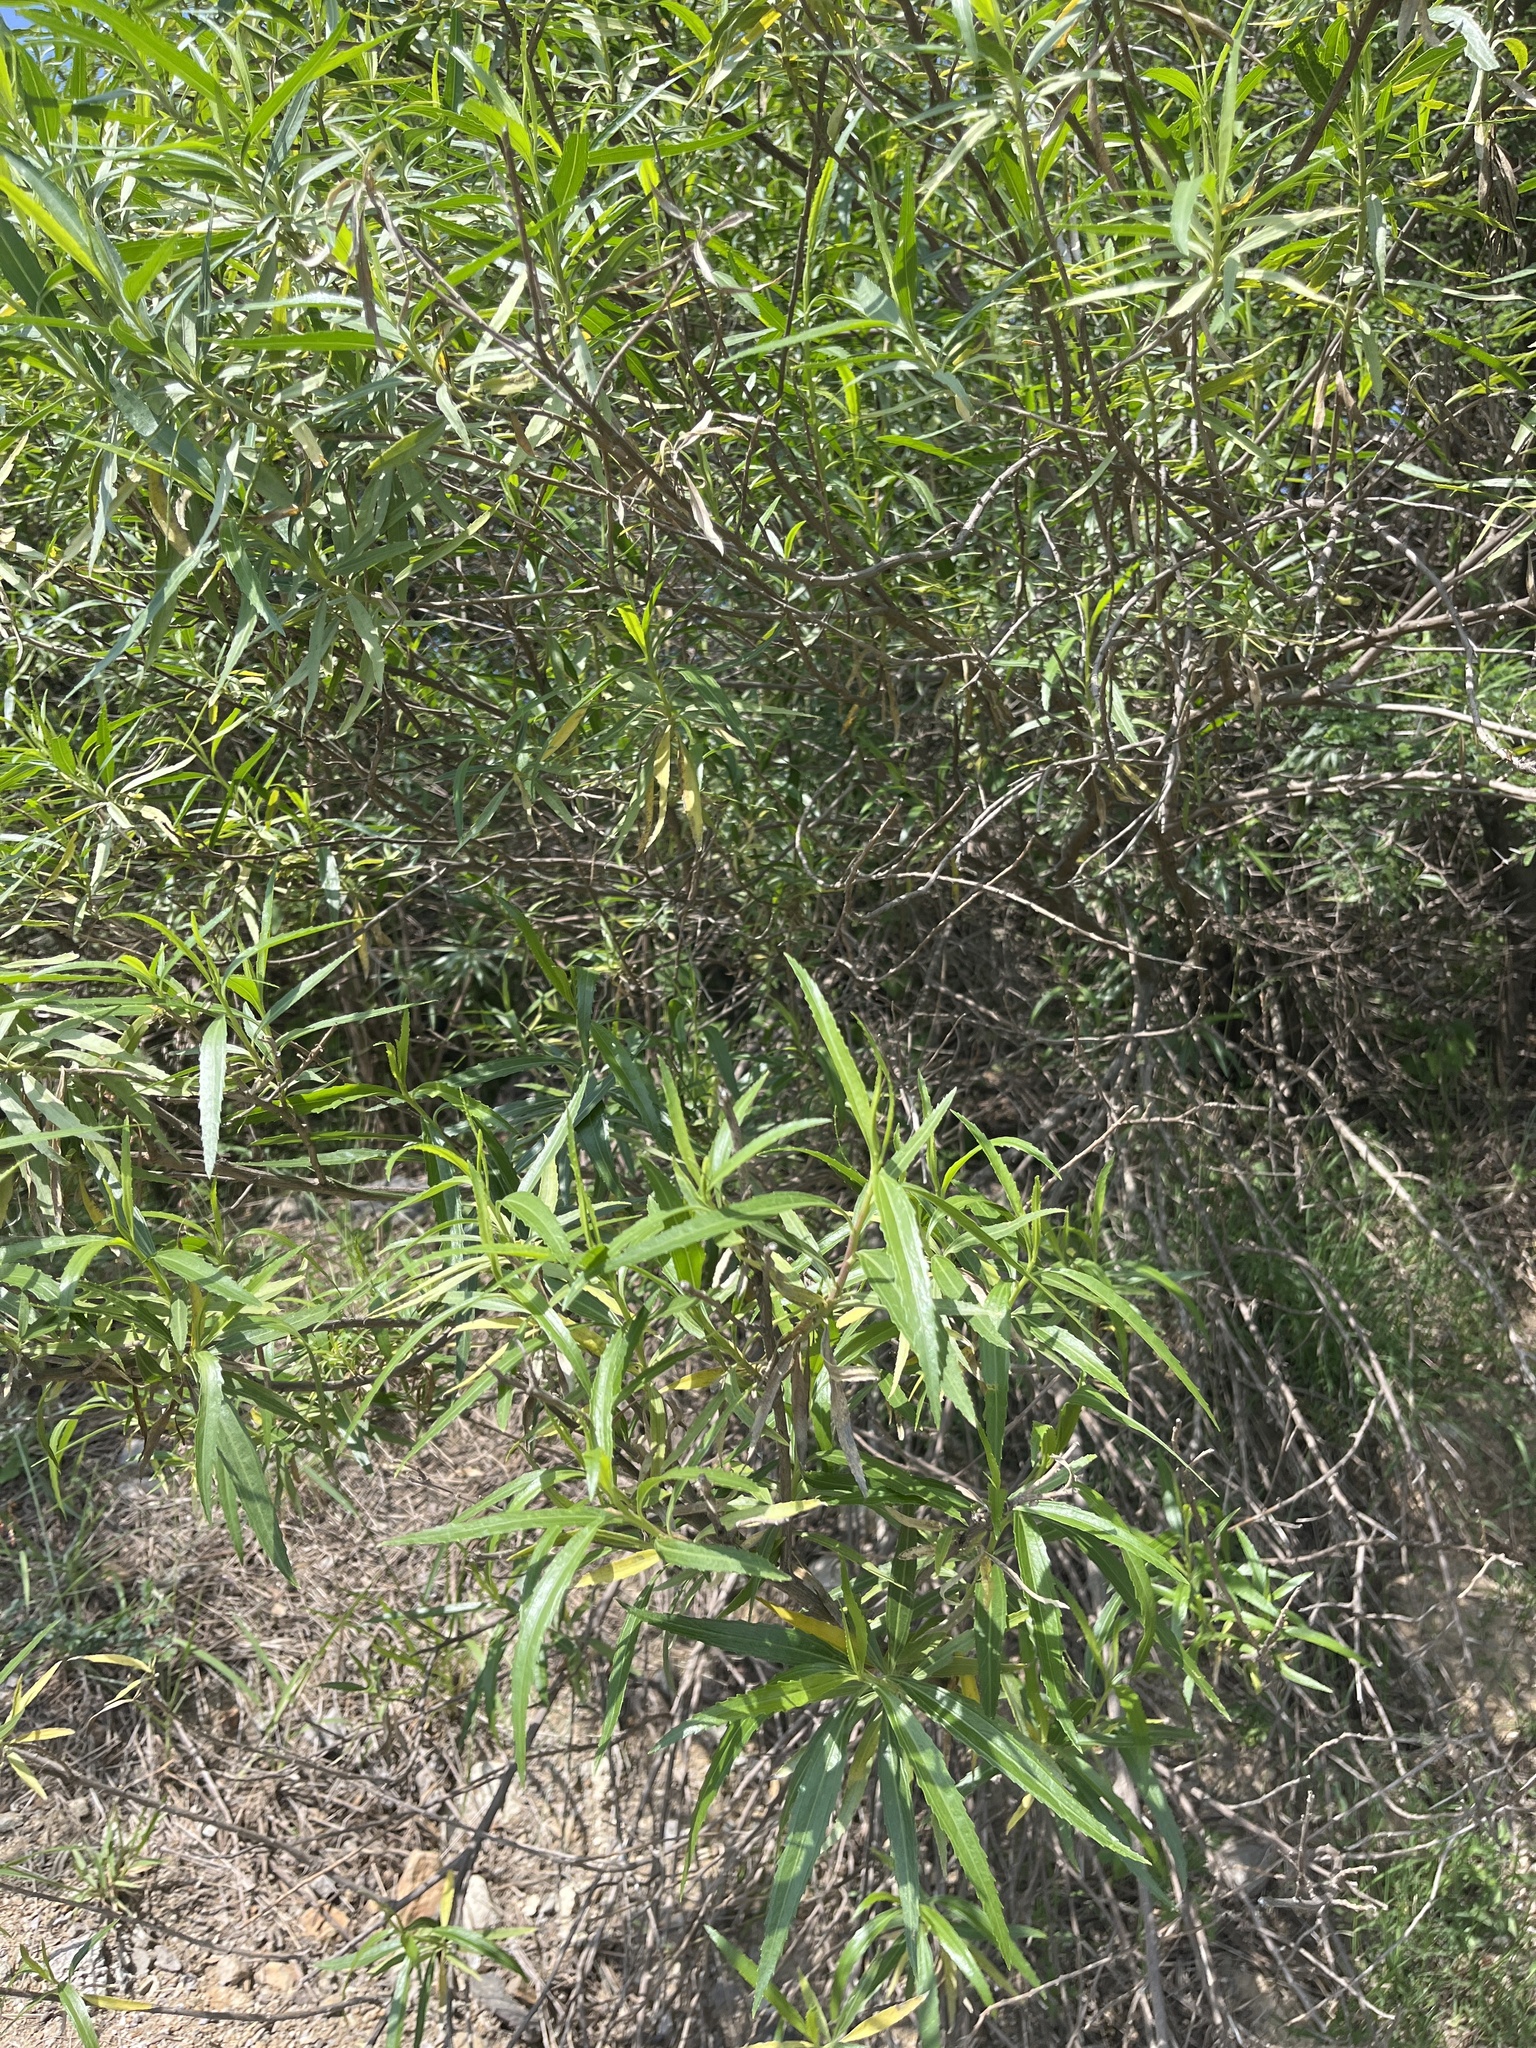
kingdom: Plantae
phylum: Tracheophyta
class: Magnoliopsida
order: Asterales
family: Asteraceae
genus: Baccharis
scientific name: Baccharis salicifolia
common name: Sticky baccharis
